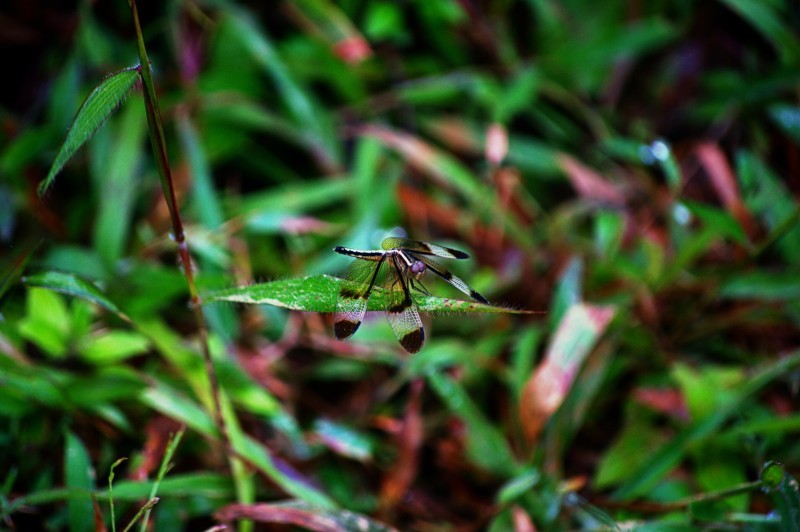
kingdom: Animalia
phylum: Arthropoda
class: Insecta
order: Odonata
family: Libellulidae
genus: Neurothemis
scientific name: Neurothemis tullia
